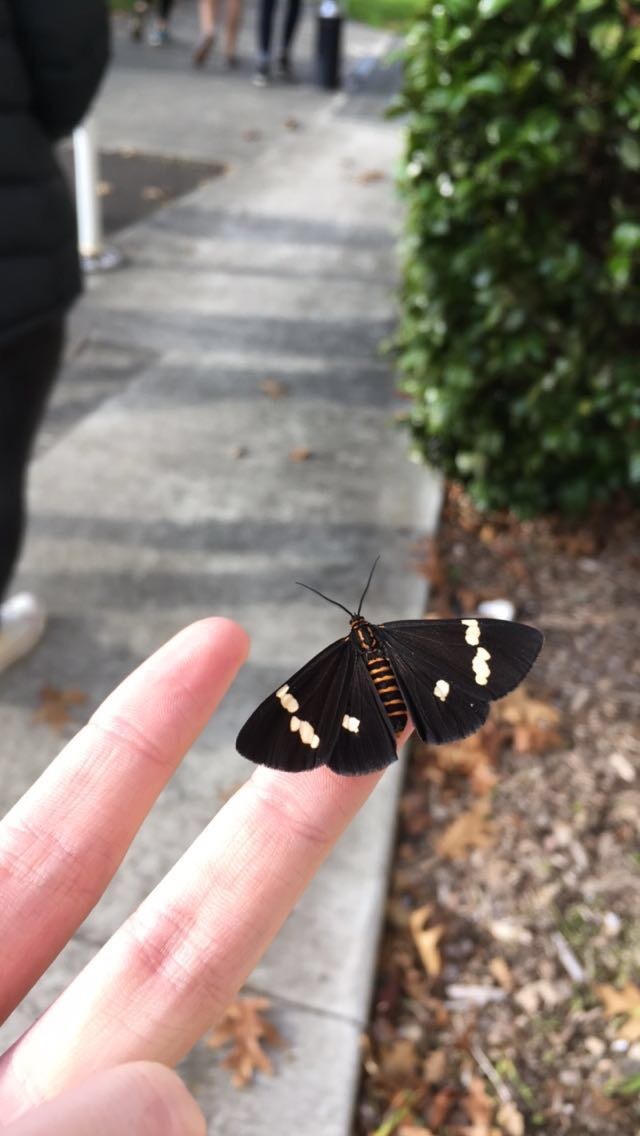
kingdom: Animalia
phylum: Arthropoda
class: Insecta
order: Lepidoptera
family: Erebidae
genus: Nyctemera
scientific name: Nyctemera annulatum
